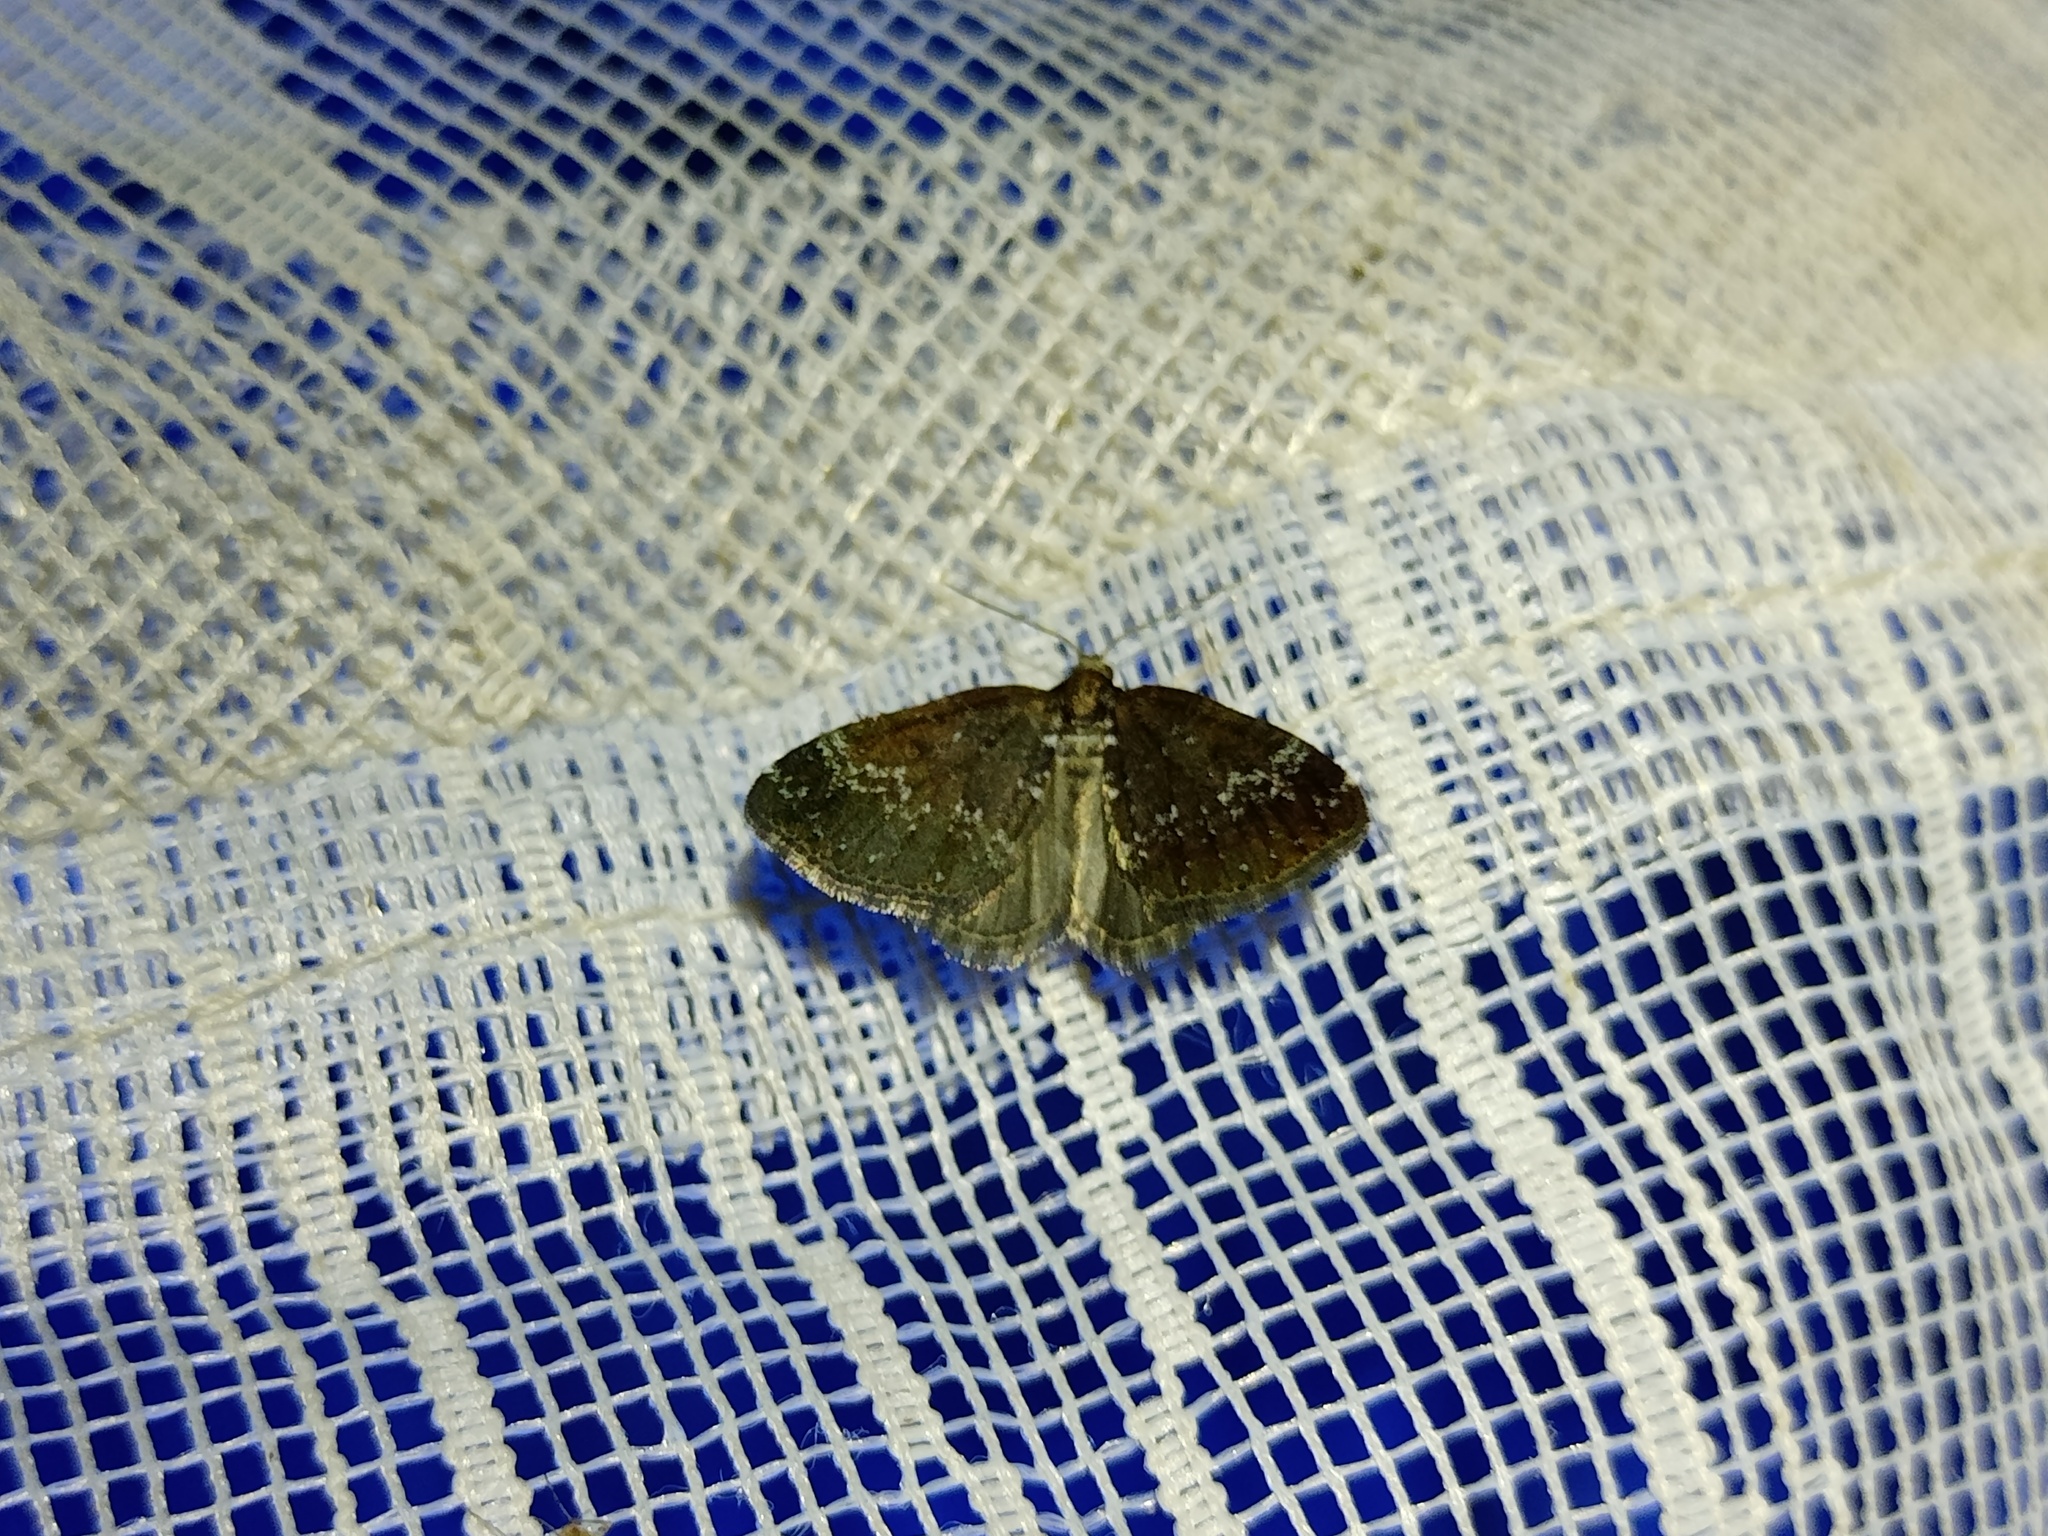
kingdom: Animalia
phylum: Arthropoda
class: Insecta
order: Lepidoptera
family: Geometridae
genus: Perizoma
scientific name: Perizoma alchemillata
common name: Small rivulet
